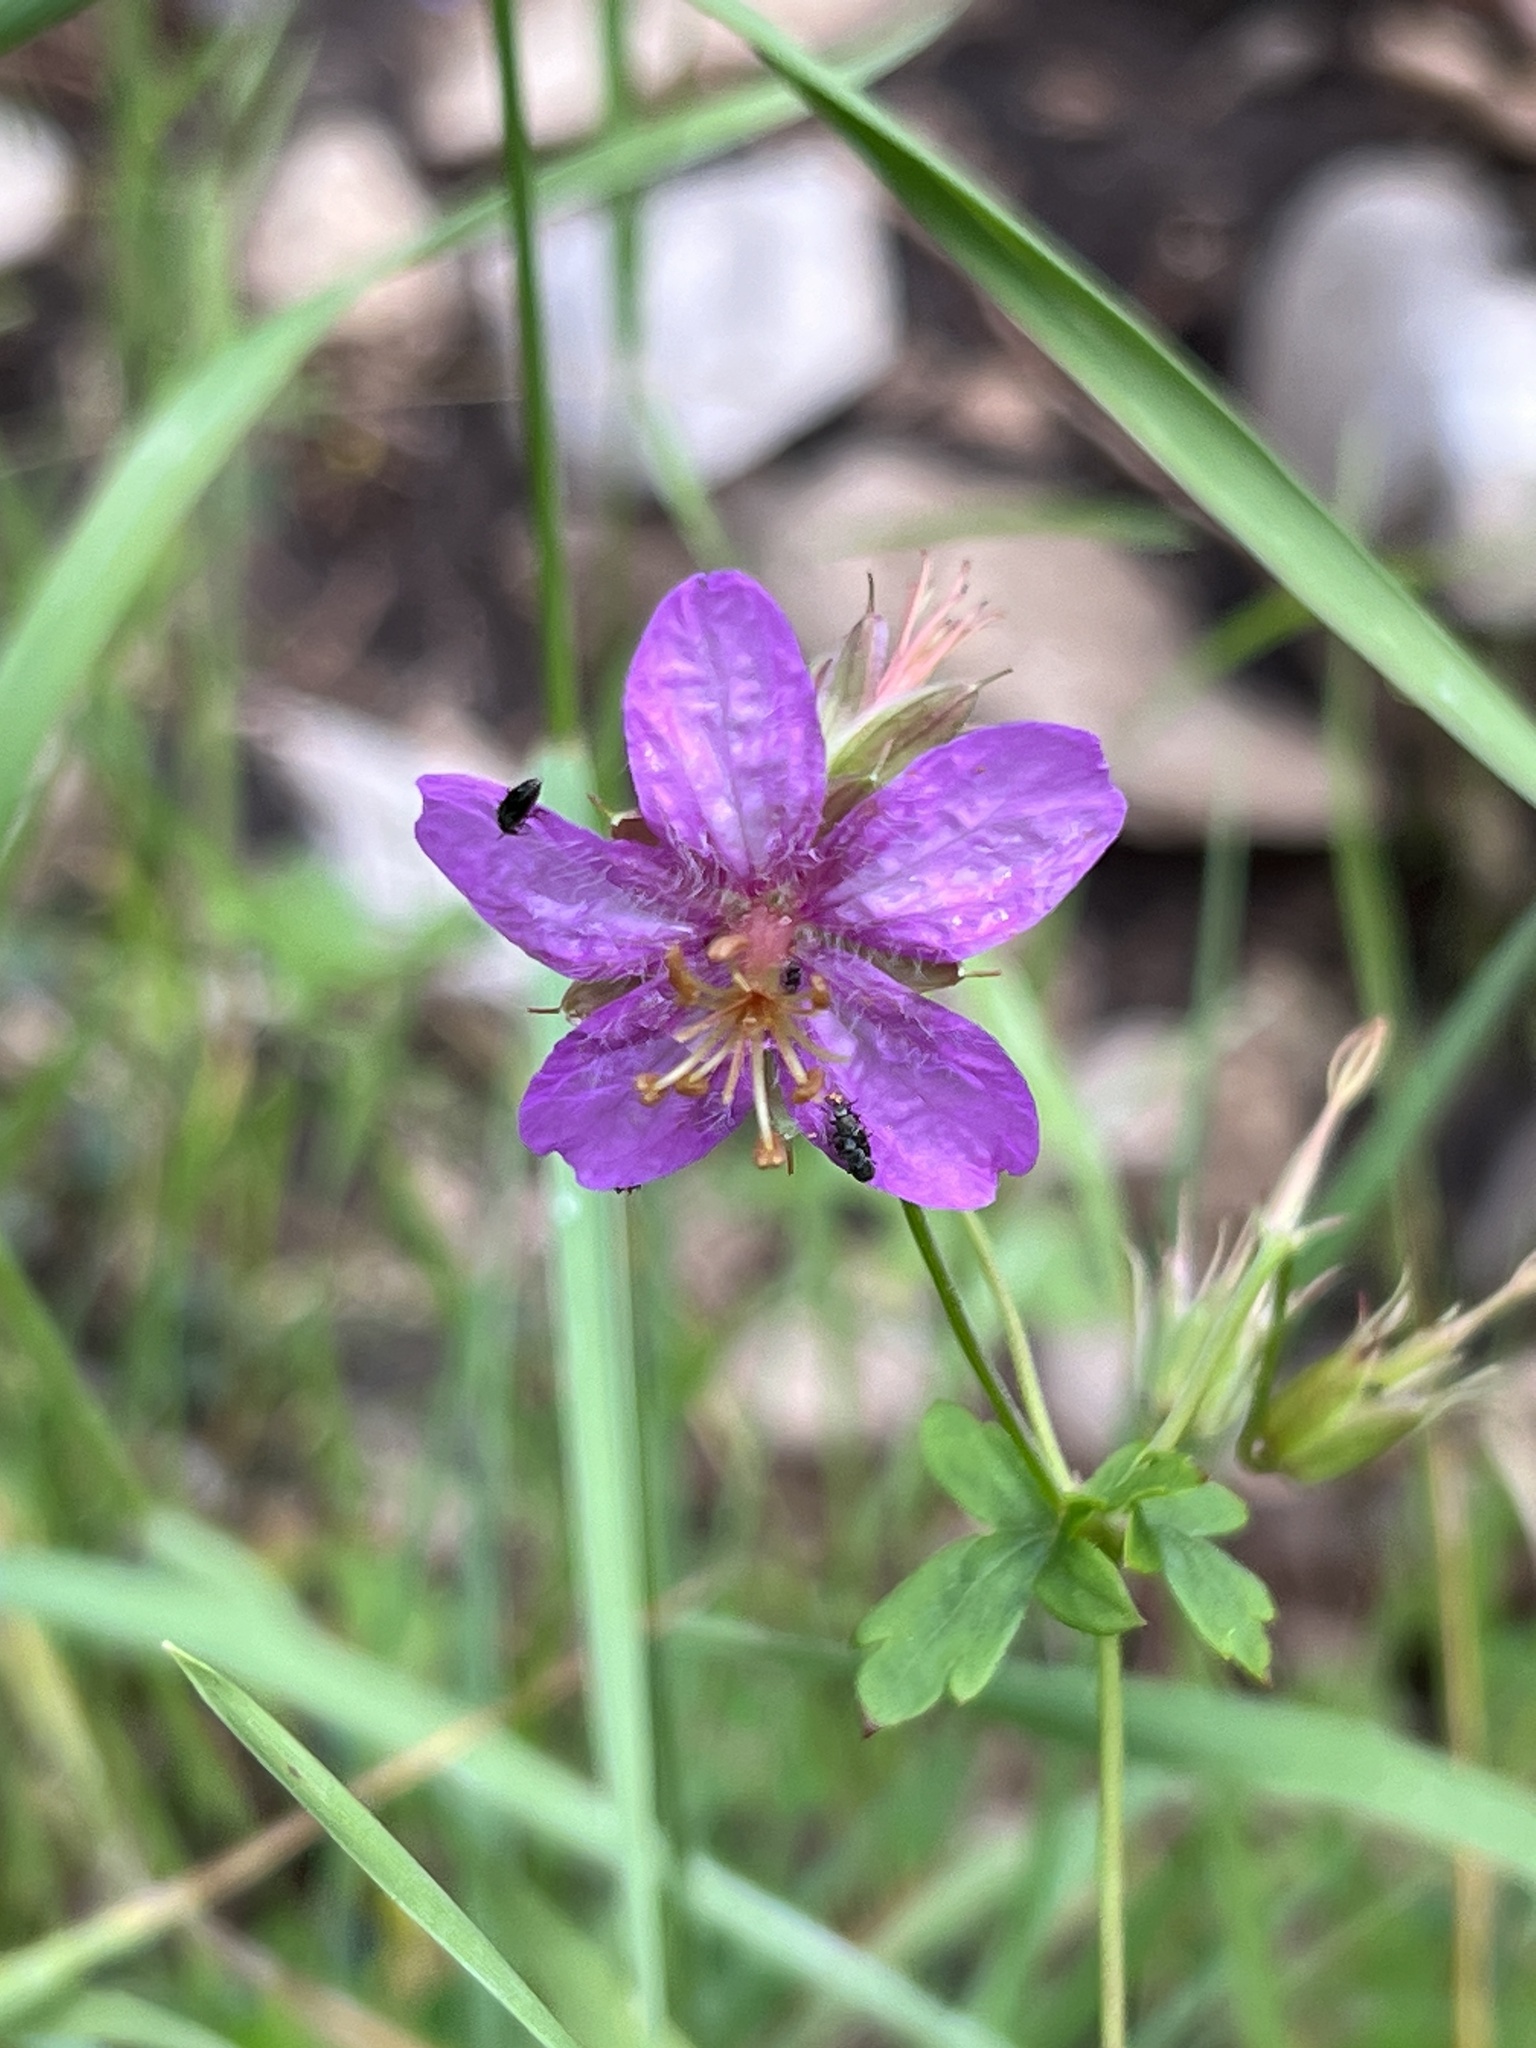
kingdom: Plantae
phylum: Tracheophyta
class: Magnoliopsida
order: Geraniales
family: Geraniaceae
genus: Geranium
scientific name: Geranium caespitosum
